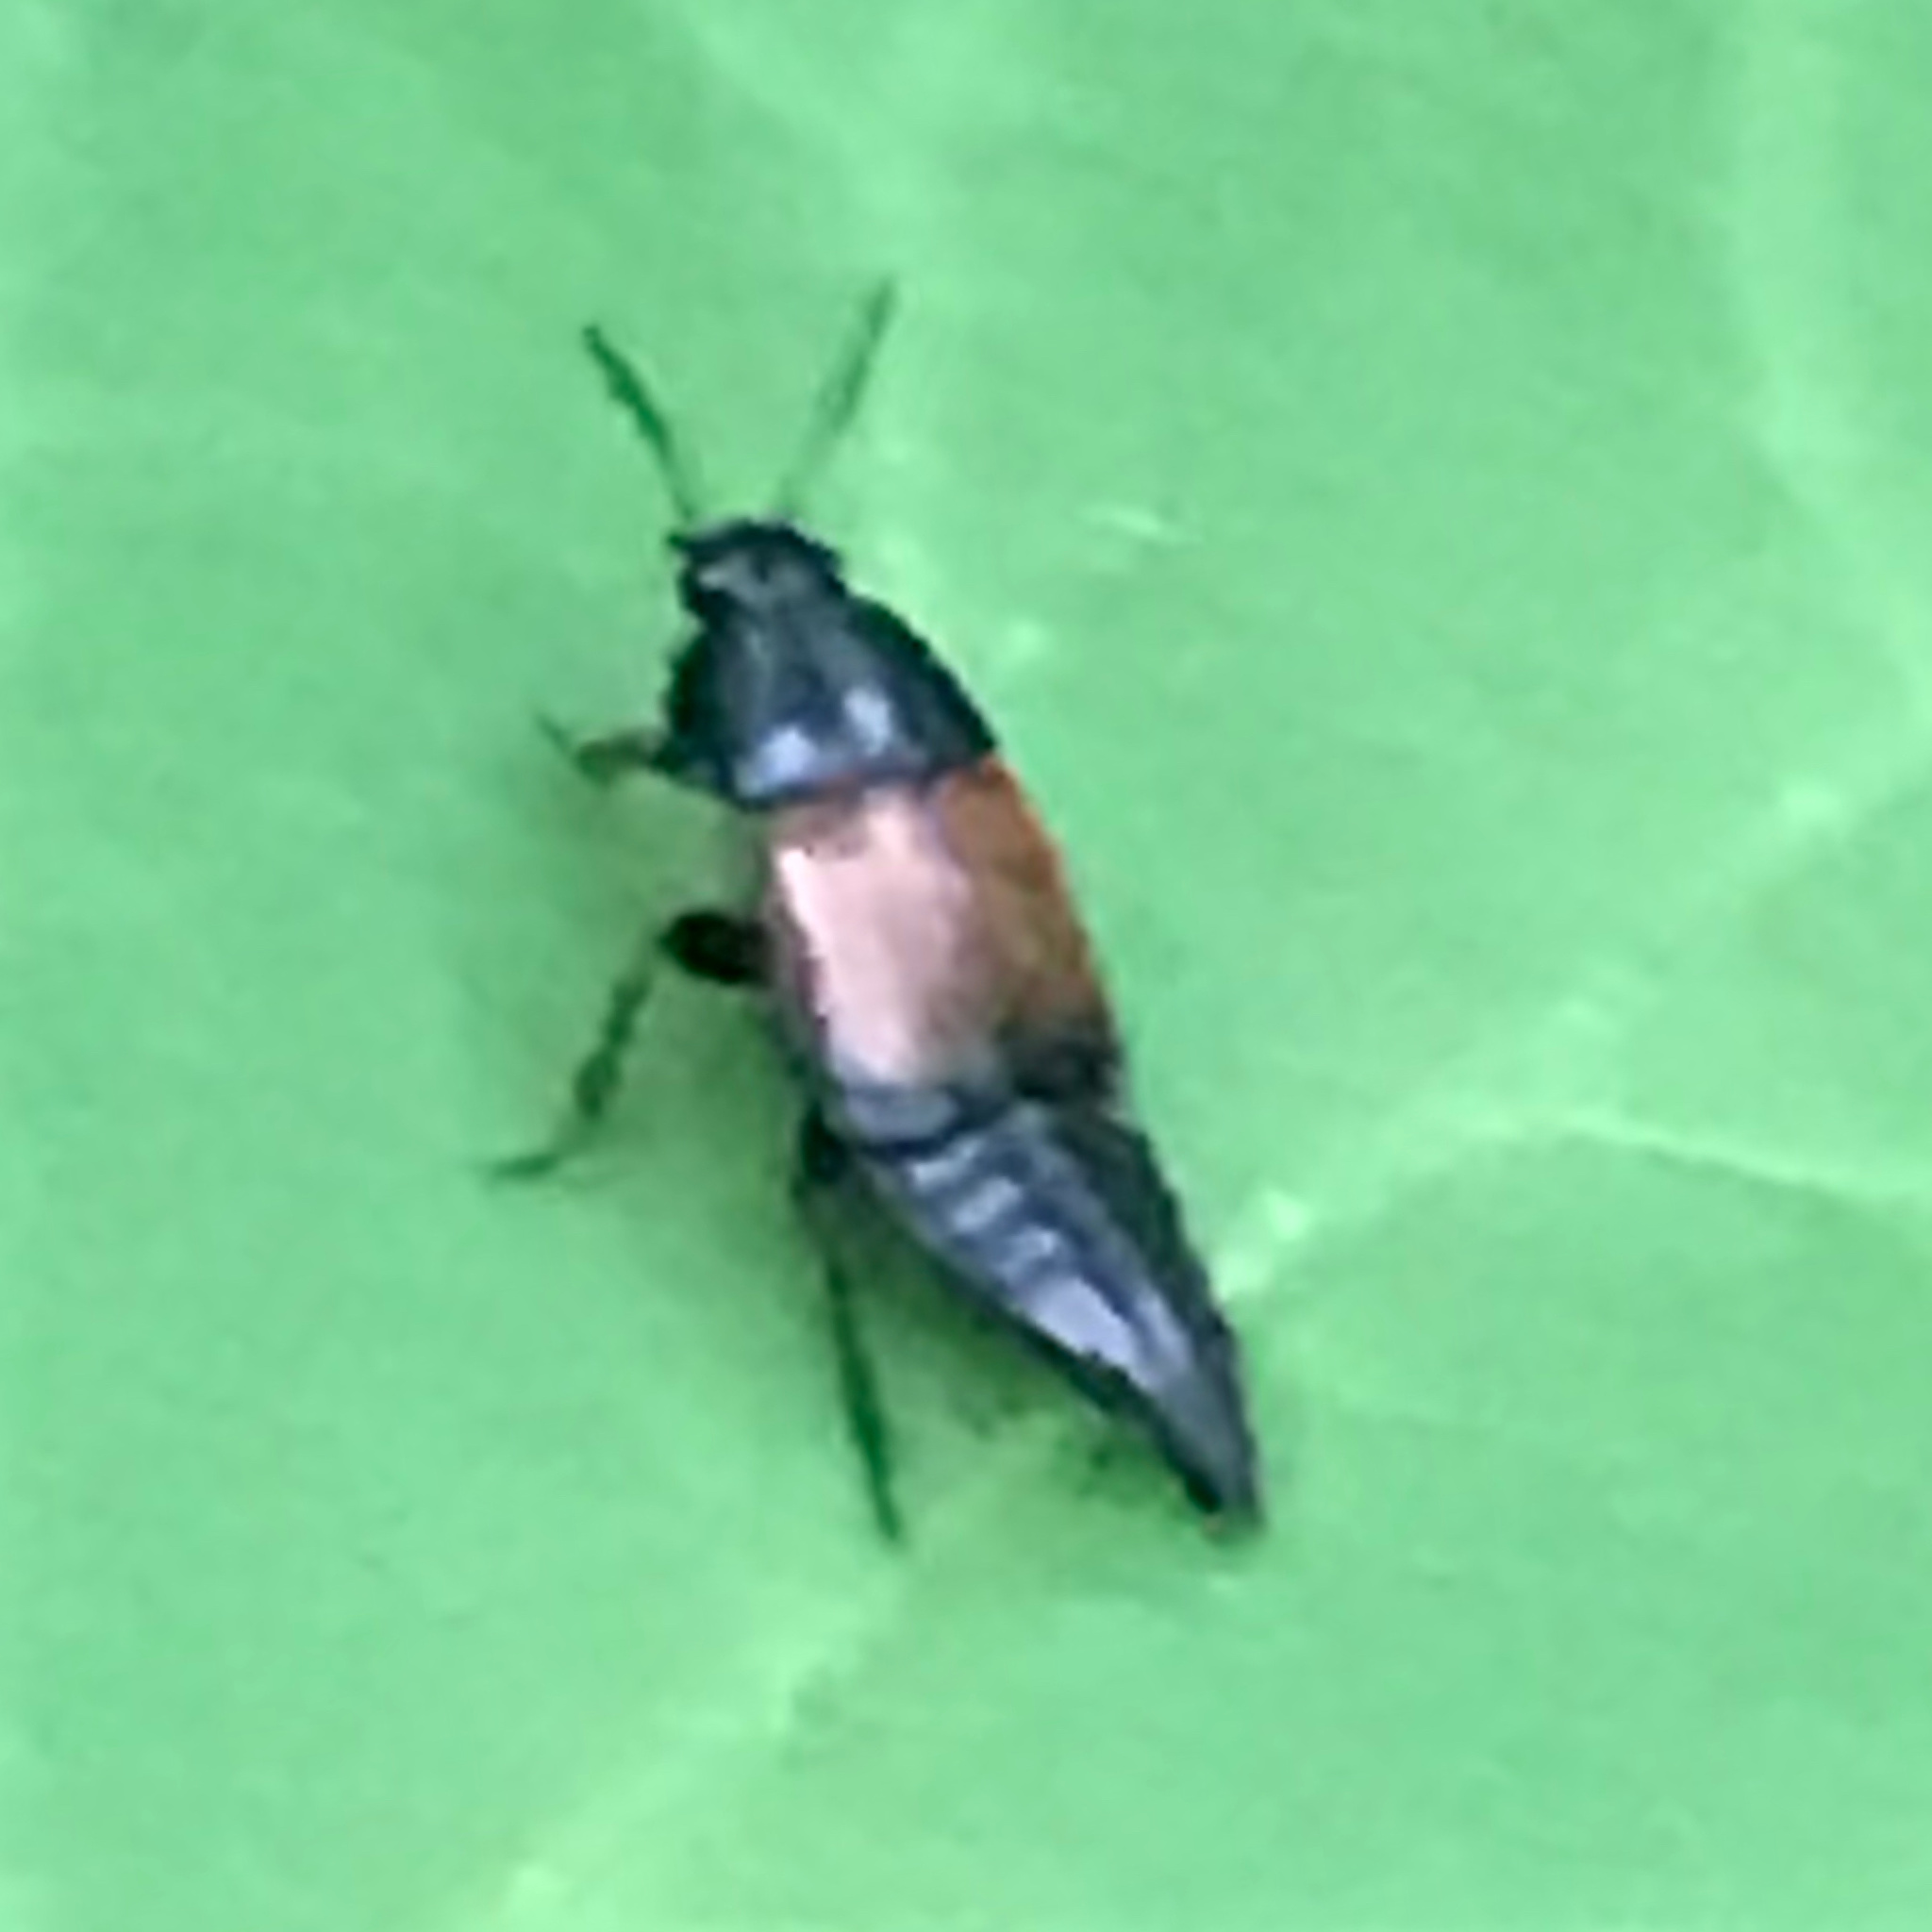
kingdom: Animalia
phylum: Arthropoda
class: Insecta
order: Coleoptera
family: Staphylinidae
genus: Tachinus
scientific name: Tachinus fimbriatus
